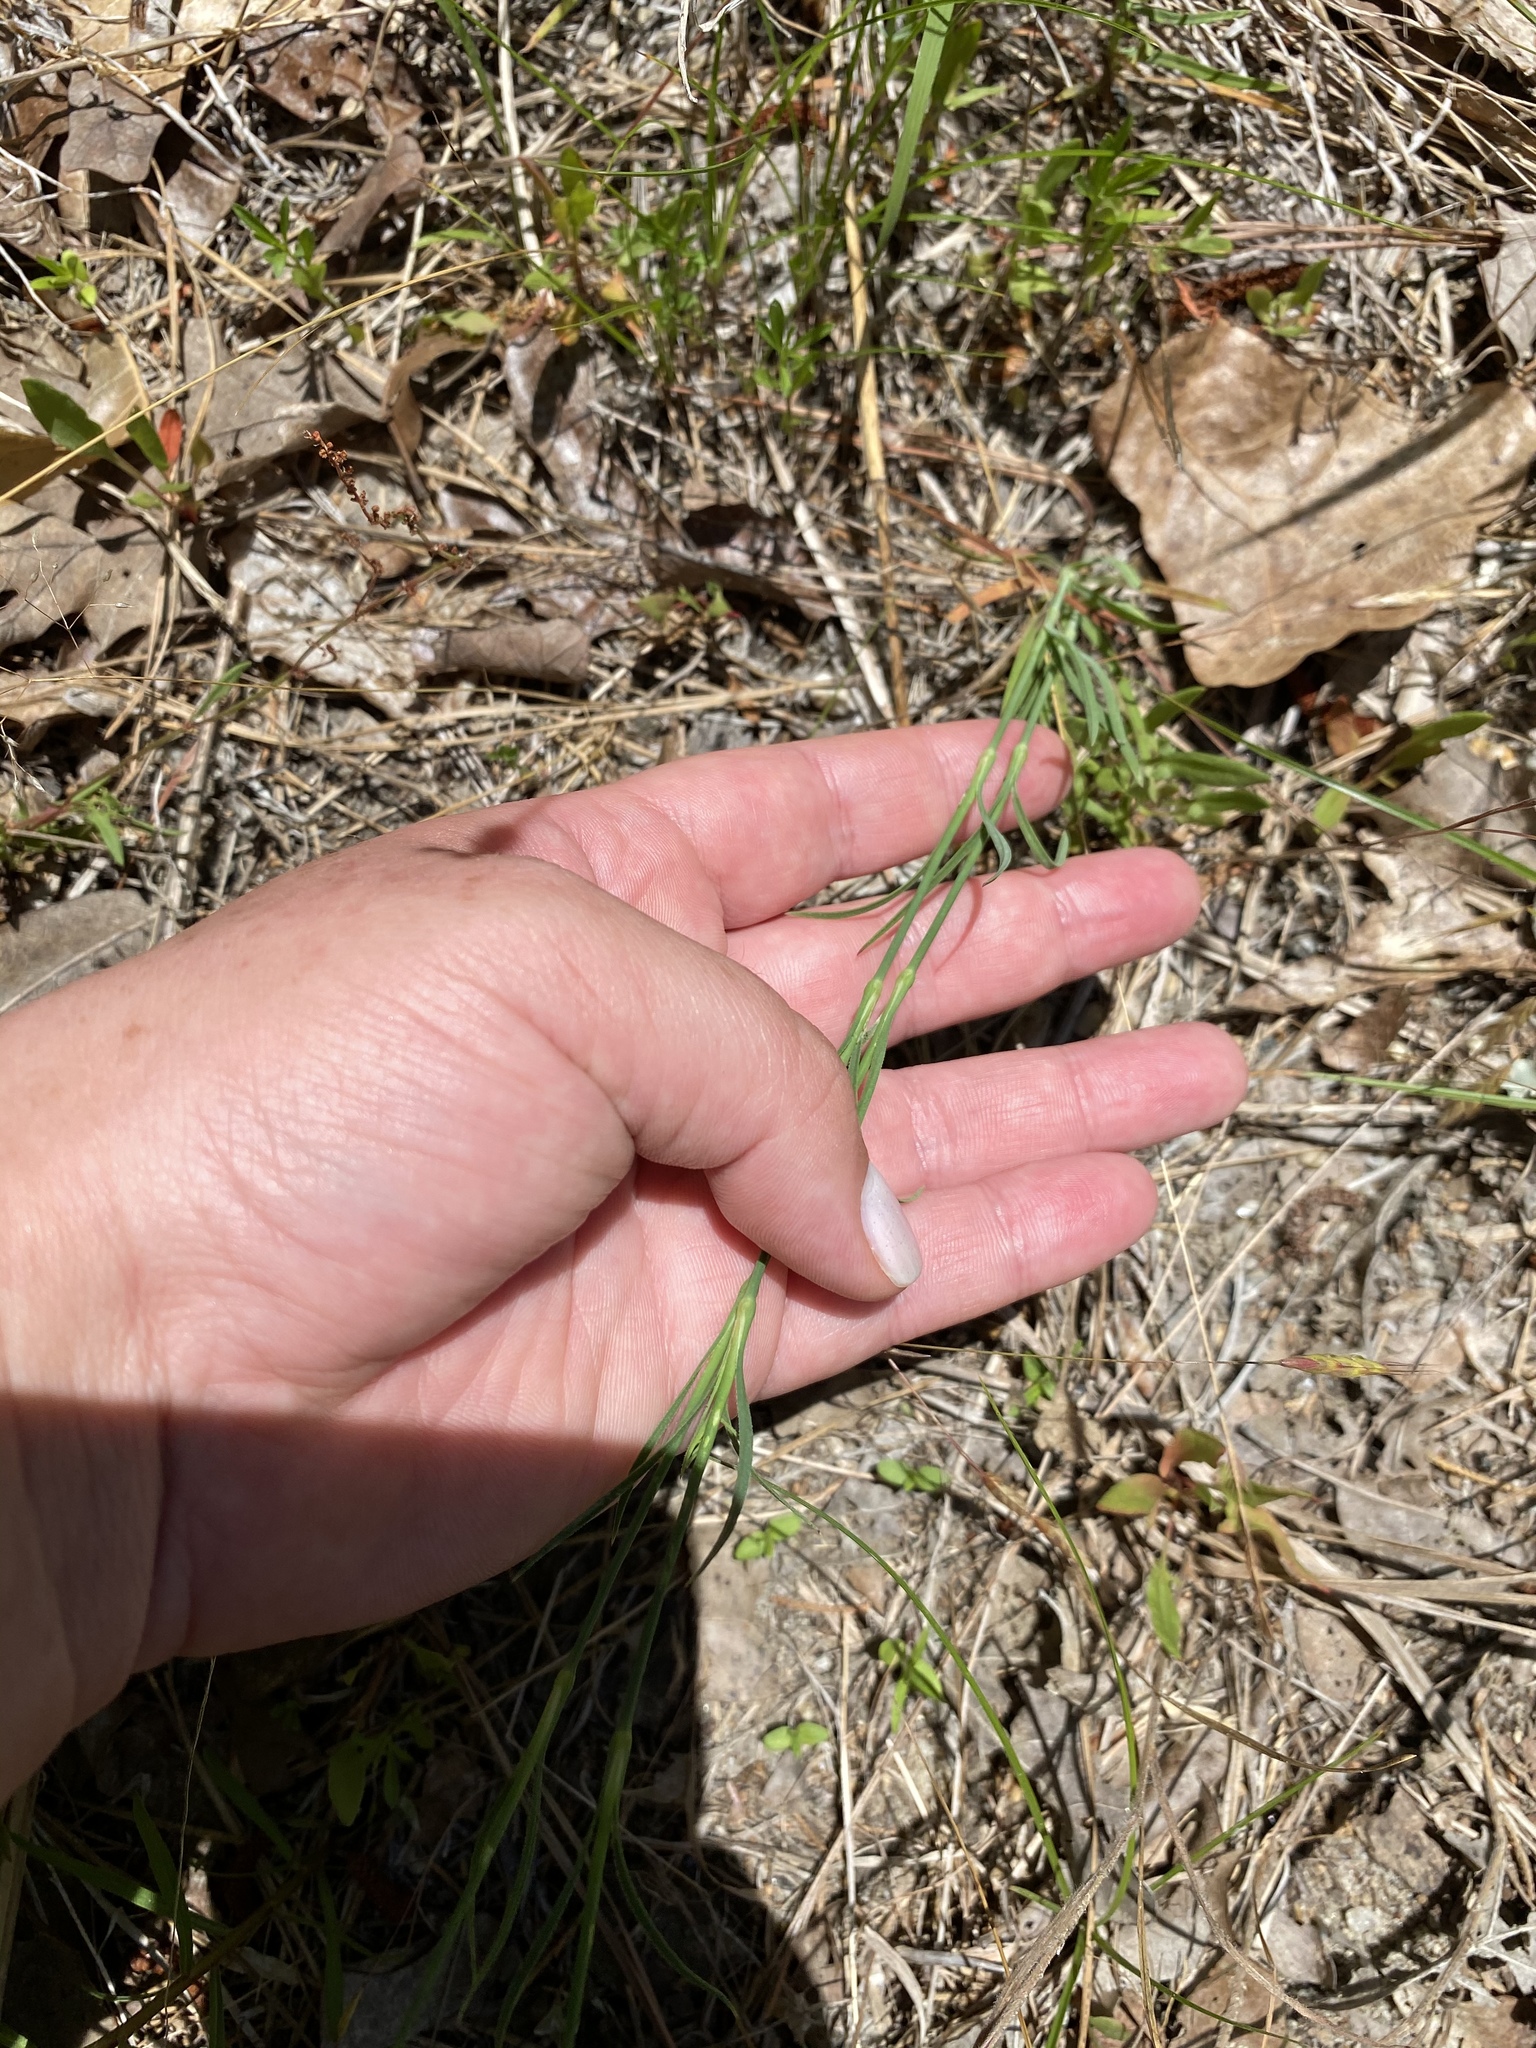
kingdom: Plantae
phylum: Tracheophyta
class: Magnoliopsida
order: Caryophyllales
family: Caryophyllaceae
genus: Petrorhagia
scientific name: Petrorhagia prolifera
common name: Proliferous pink
